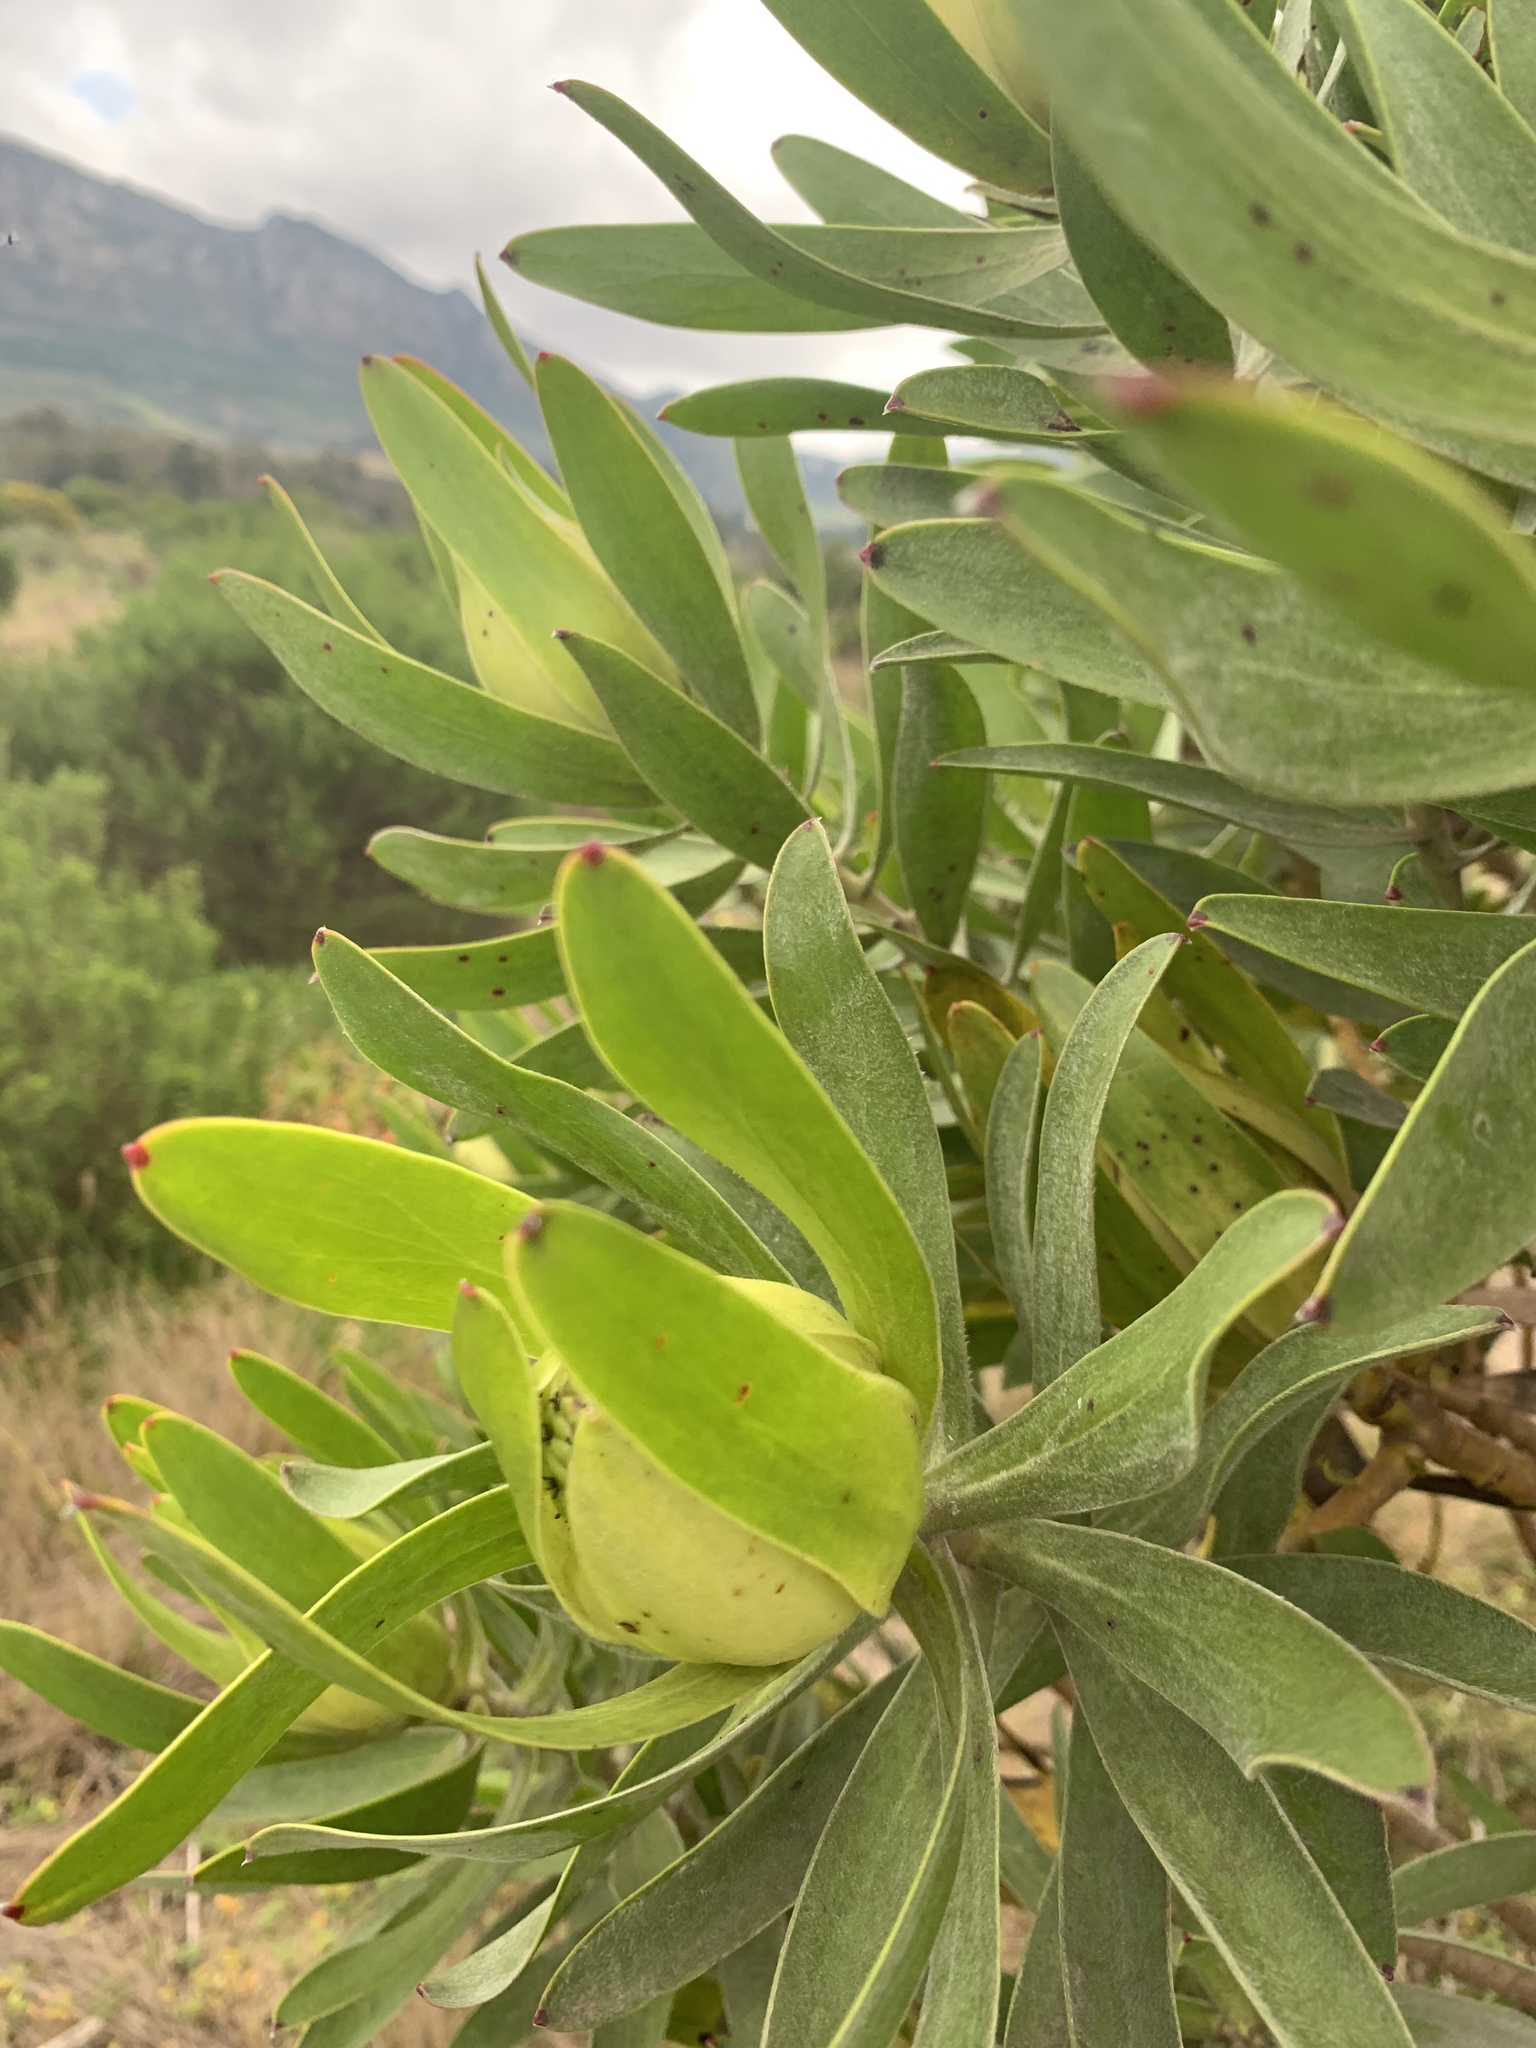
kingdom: Plantae
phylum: Tracheophyta
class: Magnoliopsida
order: Proteales
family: Proteaceae
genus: Leucadendron
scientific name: Leucadendron laureolum
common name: Golden sunshinebush
